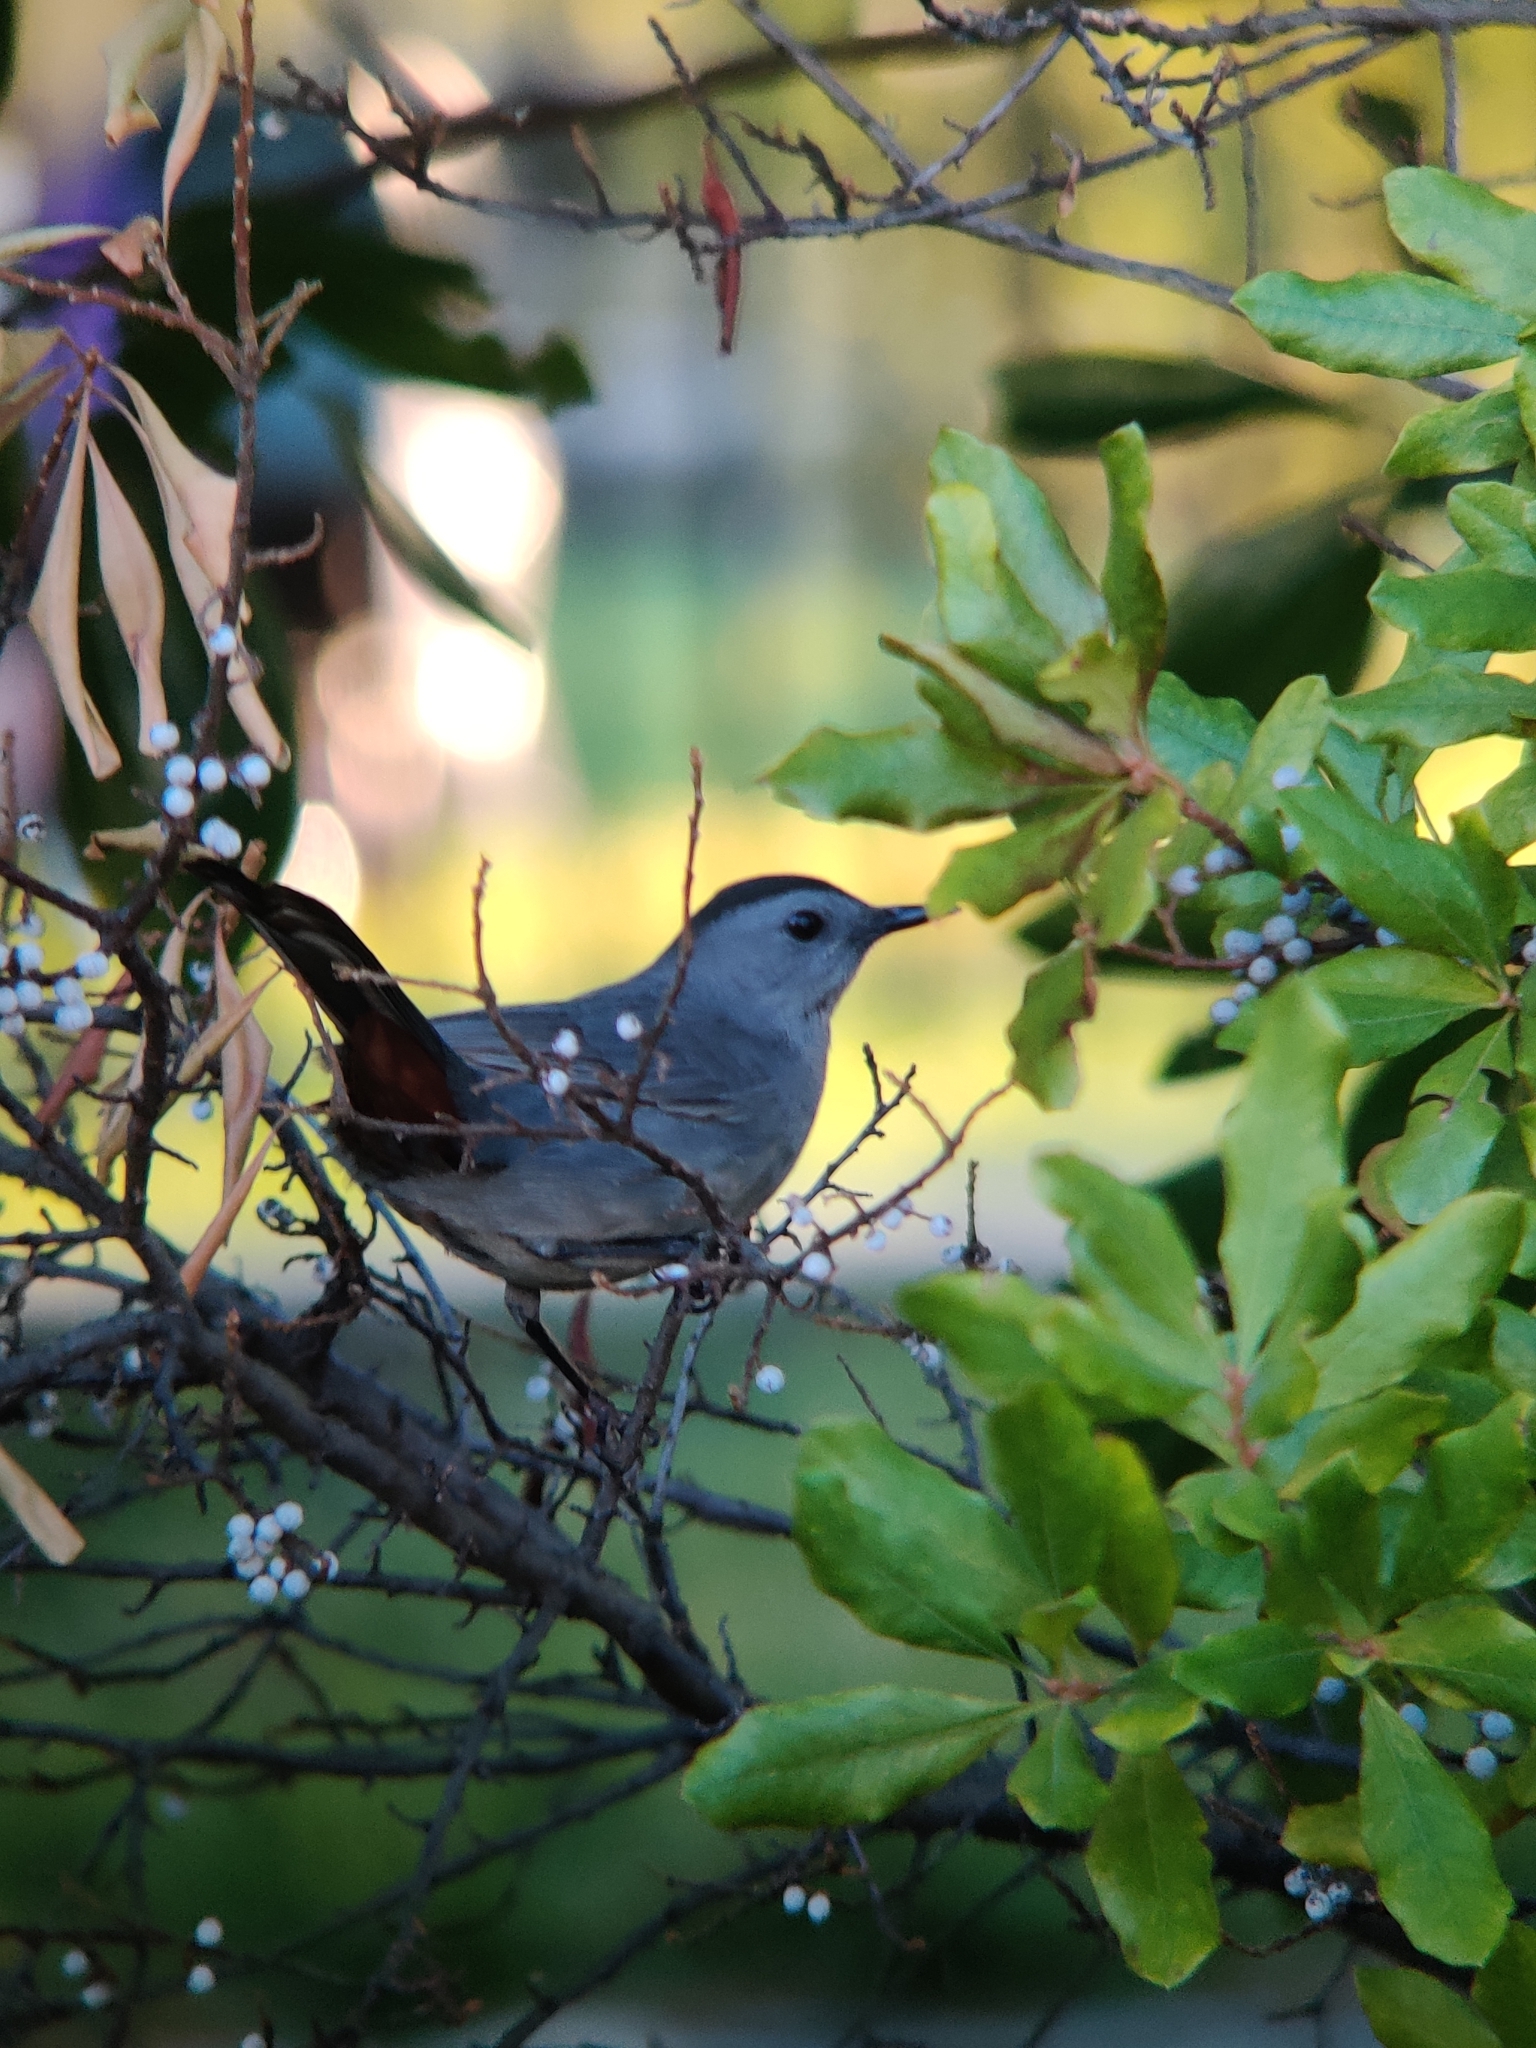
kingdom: Animalia
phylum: Chordata
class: Aves
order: Passeriformes
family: Mimidae
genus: Dumetella
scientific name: Dumetella carolinensis
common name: Gray catbird
